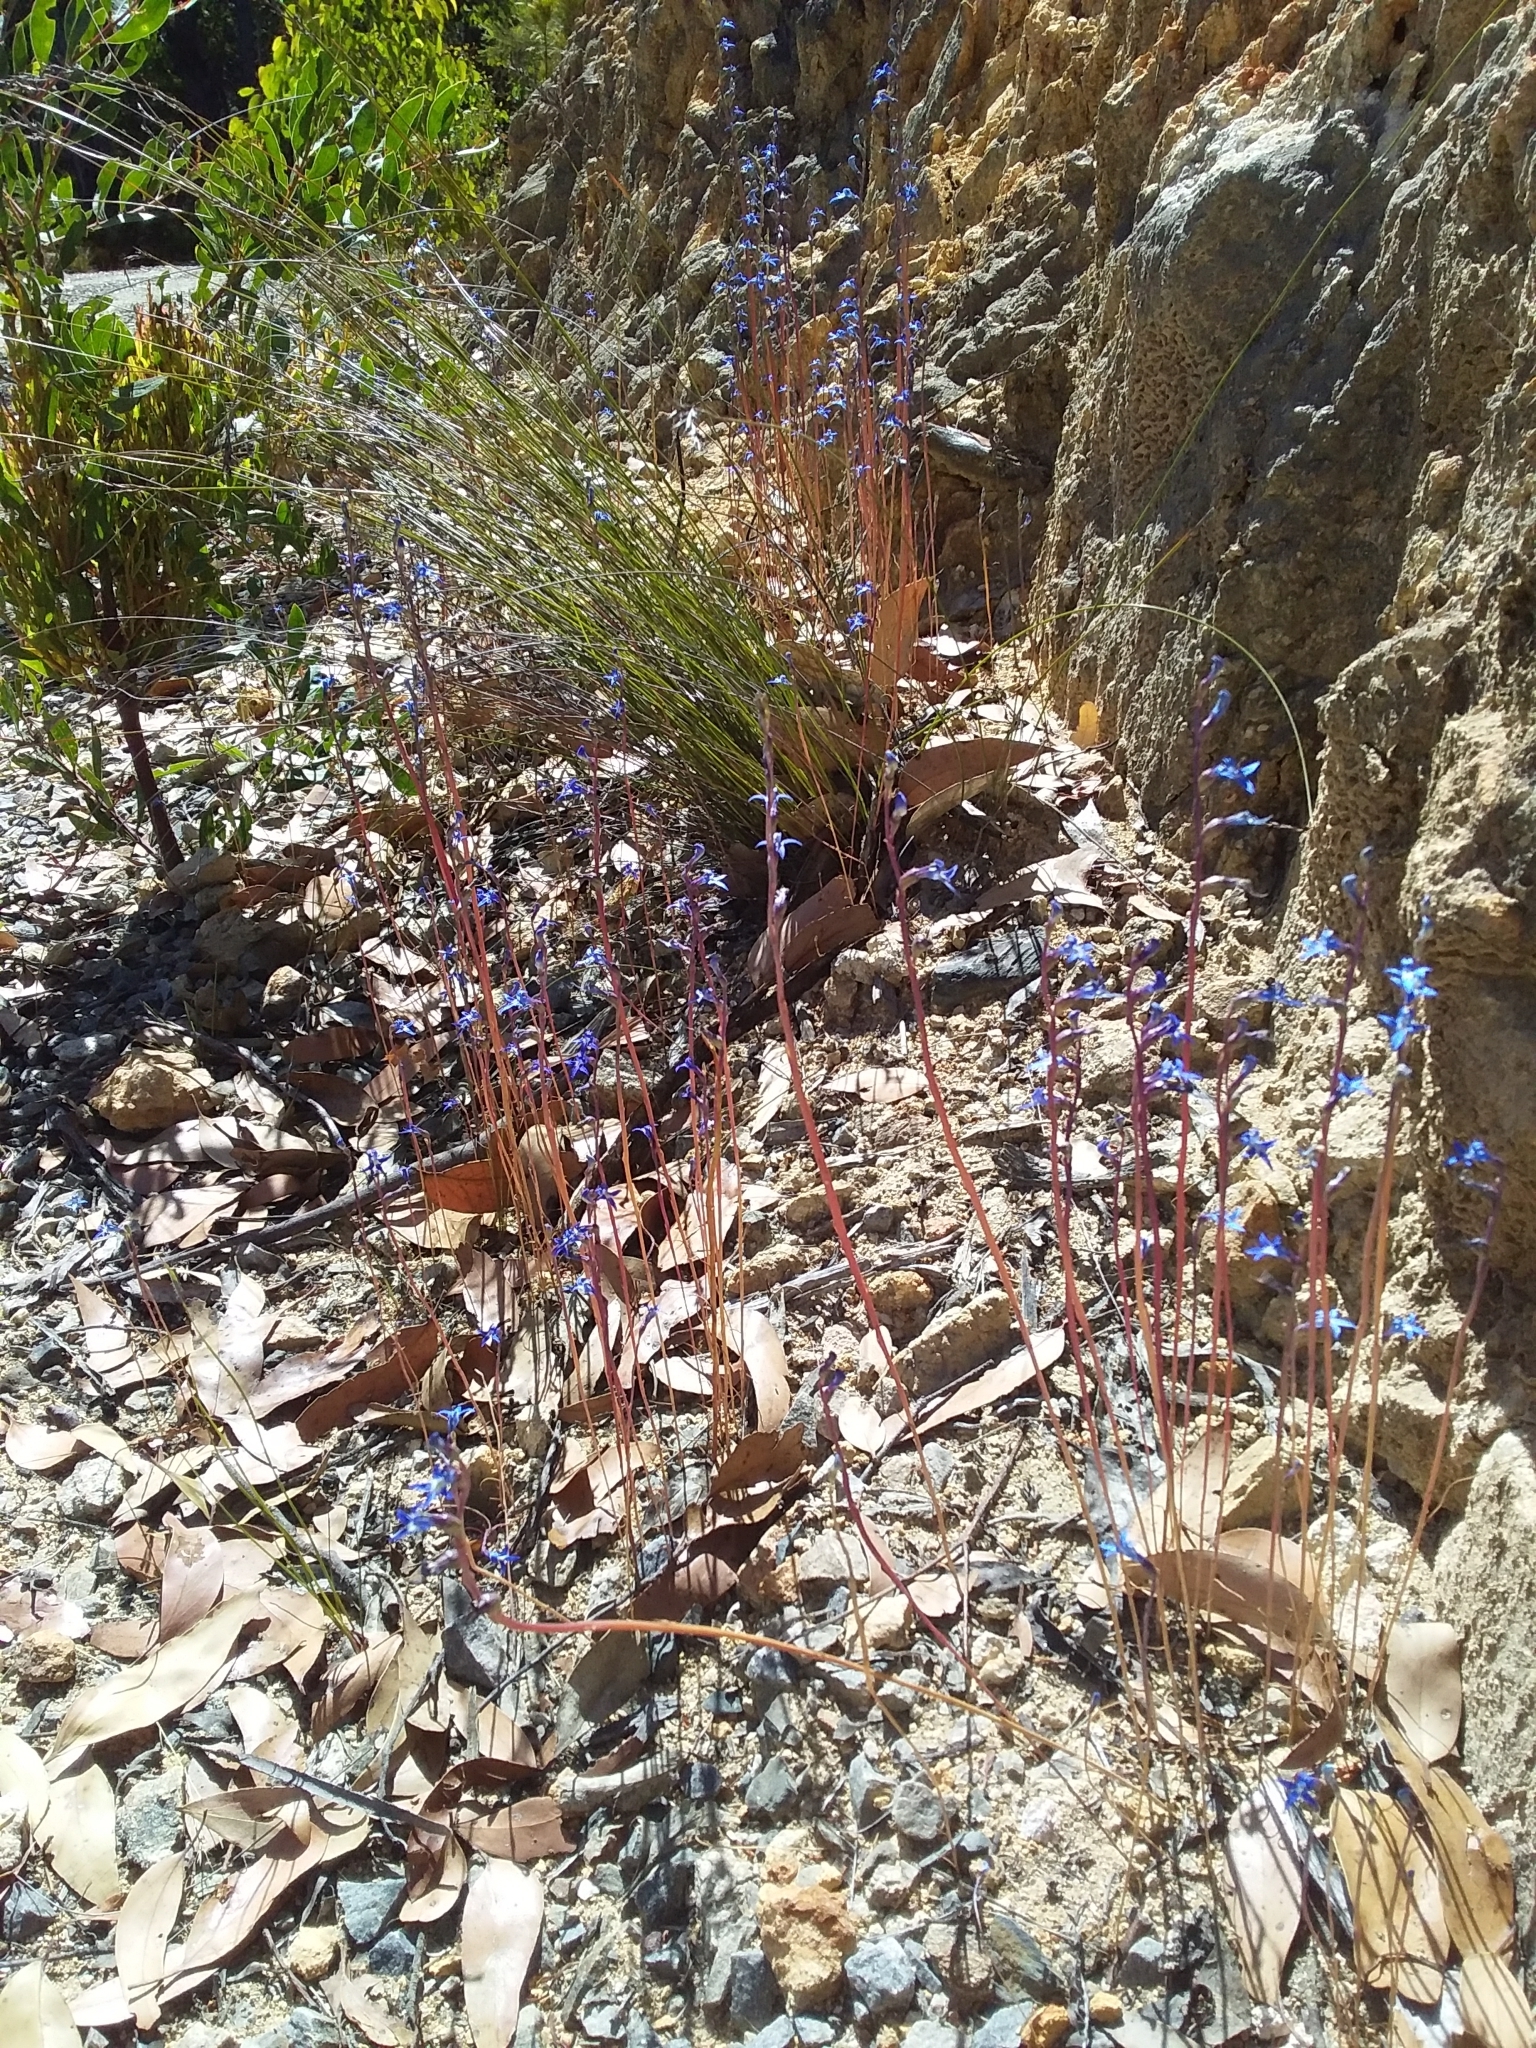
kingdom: Plantae
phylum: Tracheophyta
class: Magnoliopsida
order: Asterales
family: Campanulaceae
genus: Lobelia
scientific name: Lobelia gibbosa
